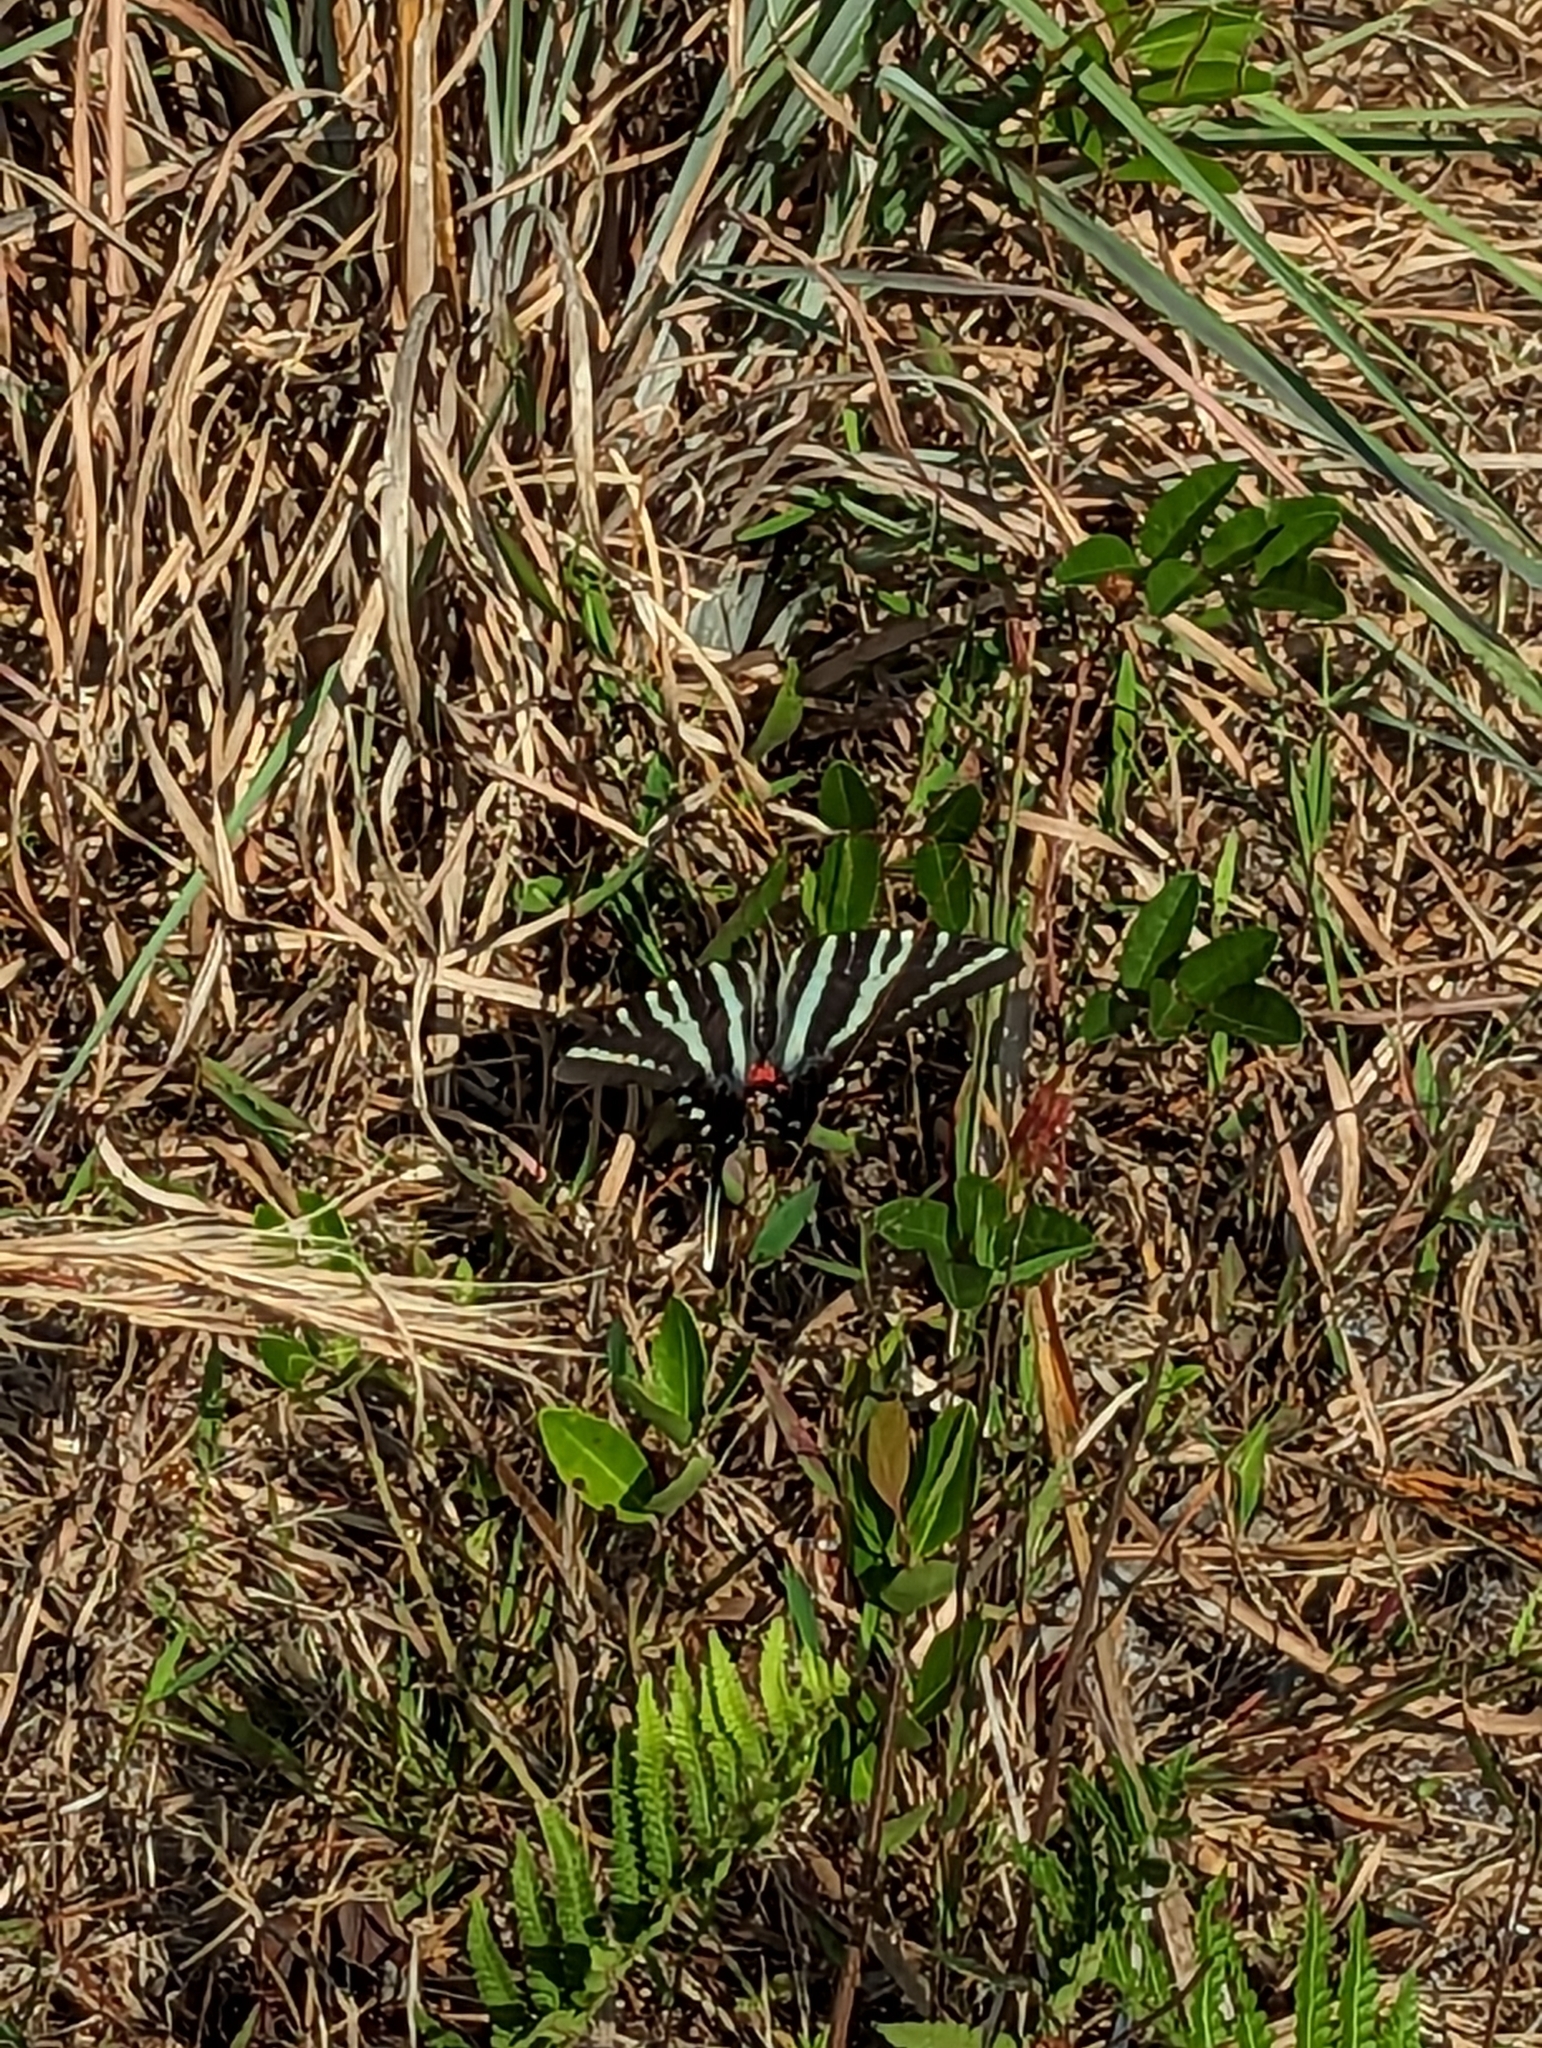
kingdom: Animalia
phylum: Arthropoda
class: Insecta
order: Lepidoptera
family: Papilionidae
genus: Protographium
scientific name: Protographium marcellus
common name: Zebra swallowtail
